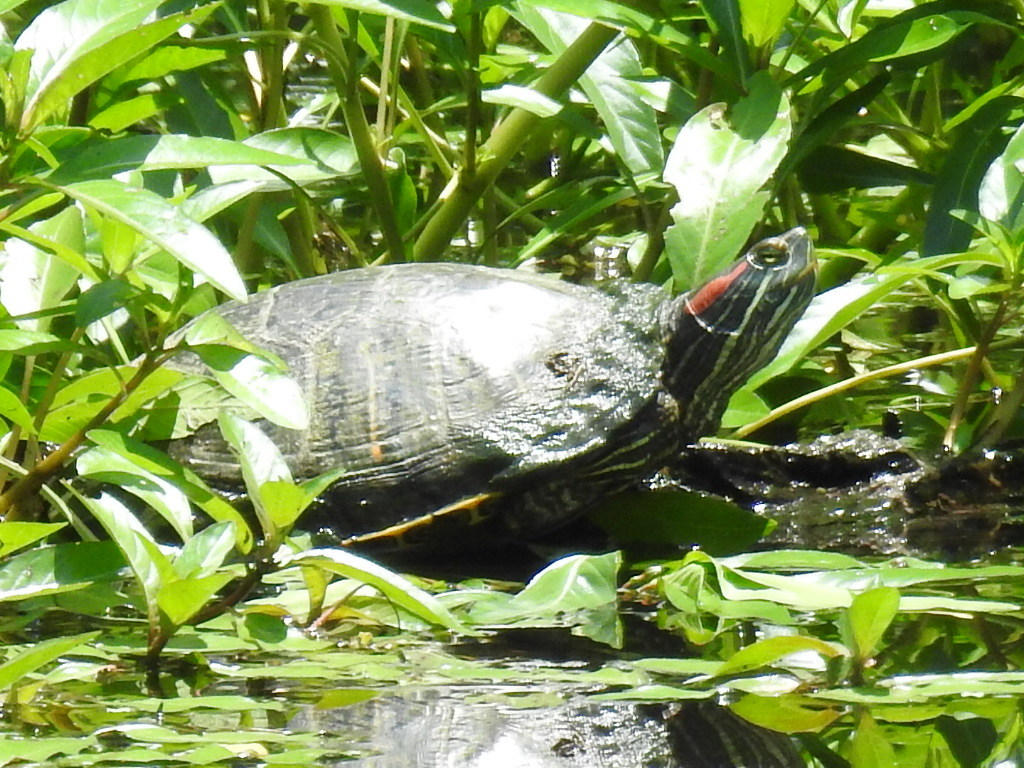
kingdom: Animalia
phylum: Chordata
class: Testudines
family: Emydidae
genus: Trachemys
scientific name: Trachemys scripta
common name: Slider
